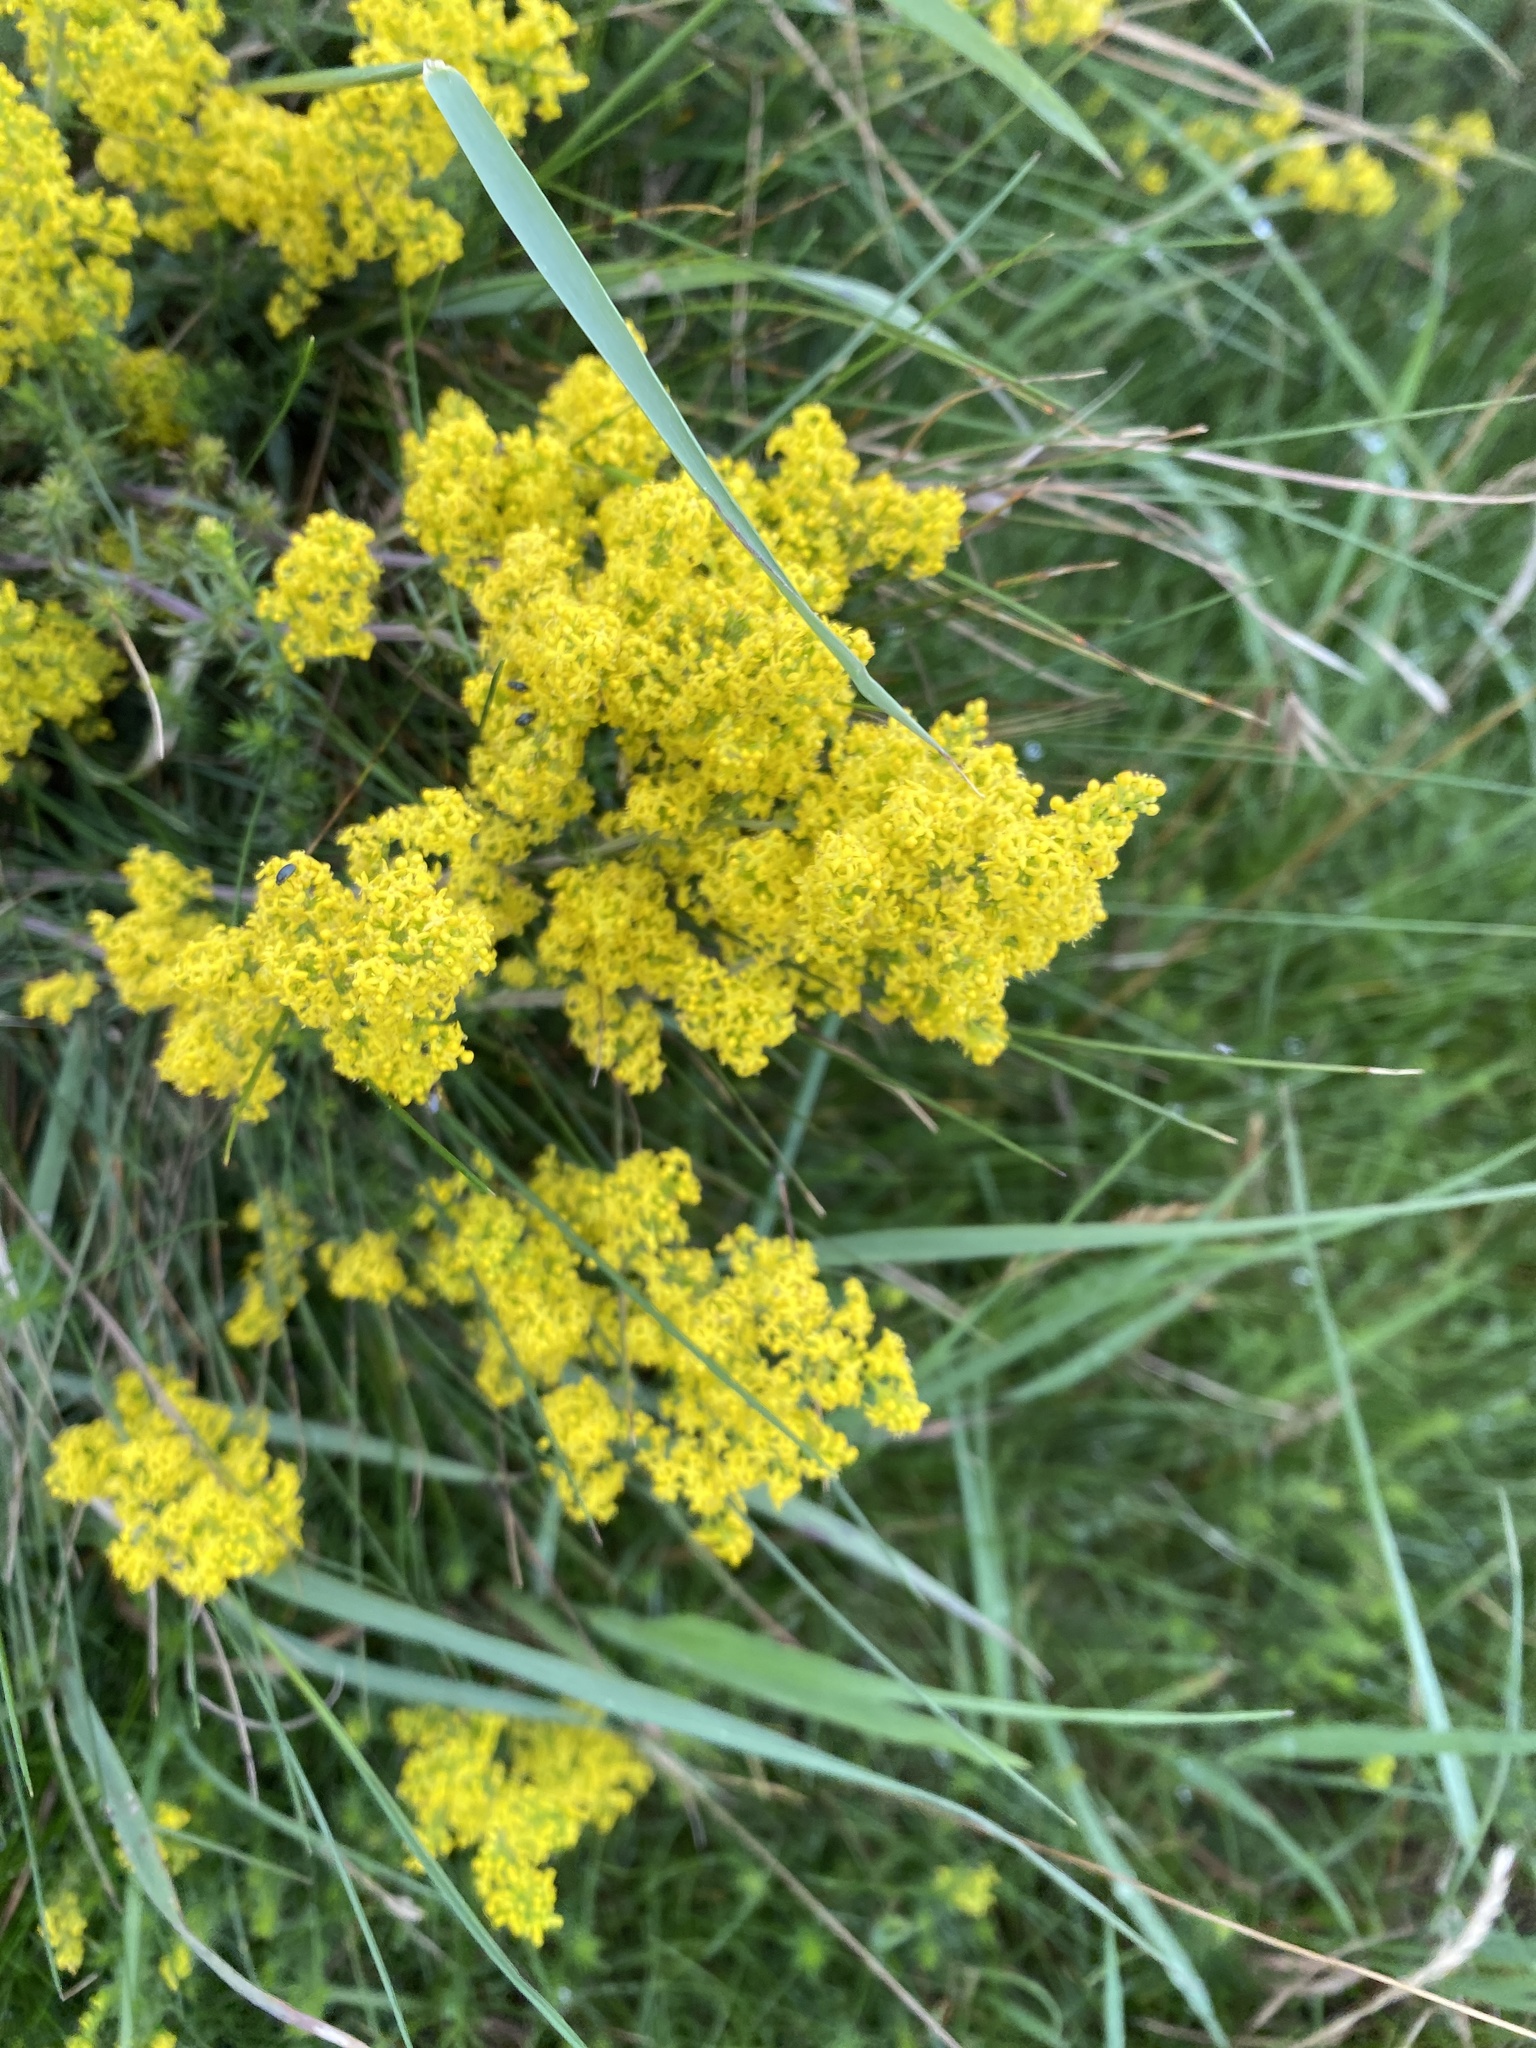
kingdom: Plantae
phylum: Tracheophyta
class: Magnoliopsida
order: Gentianales
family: Rubiaceae
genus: Galium
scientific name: Galium verum
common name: Lady's bedstraw
